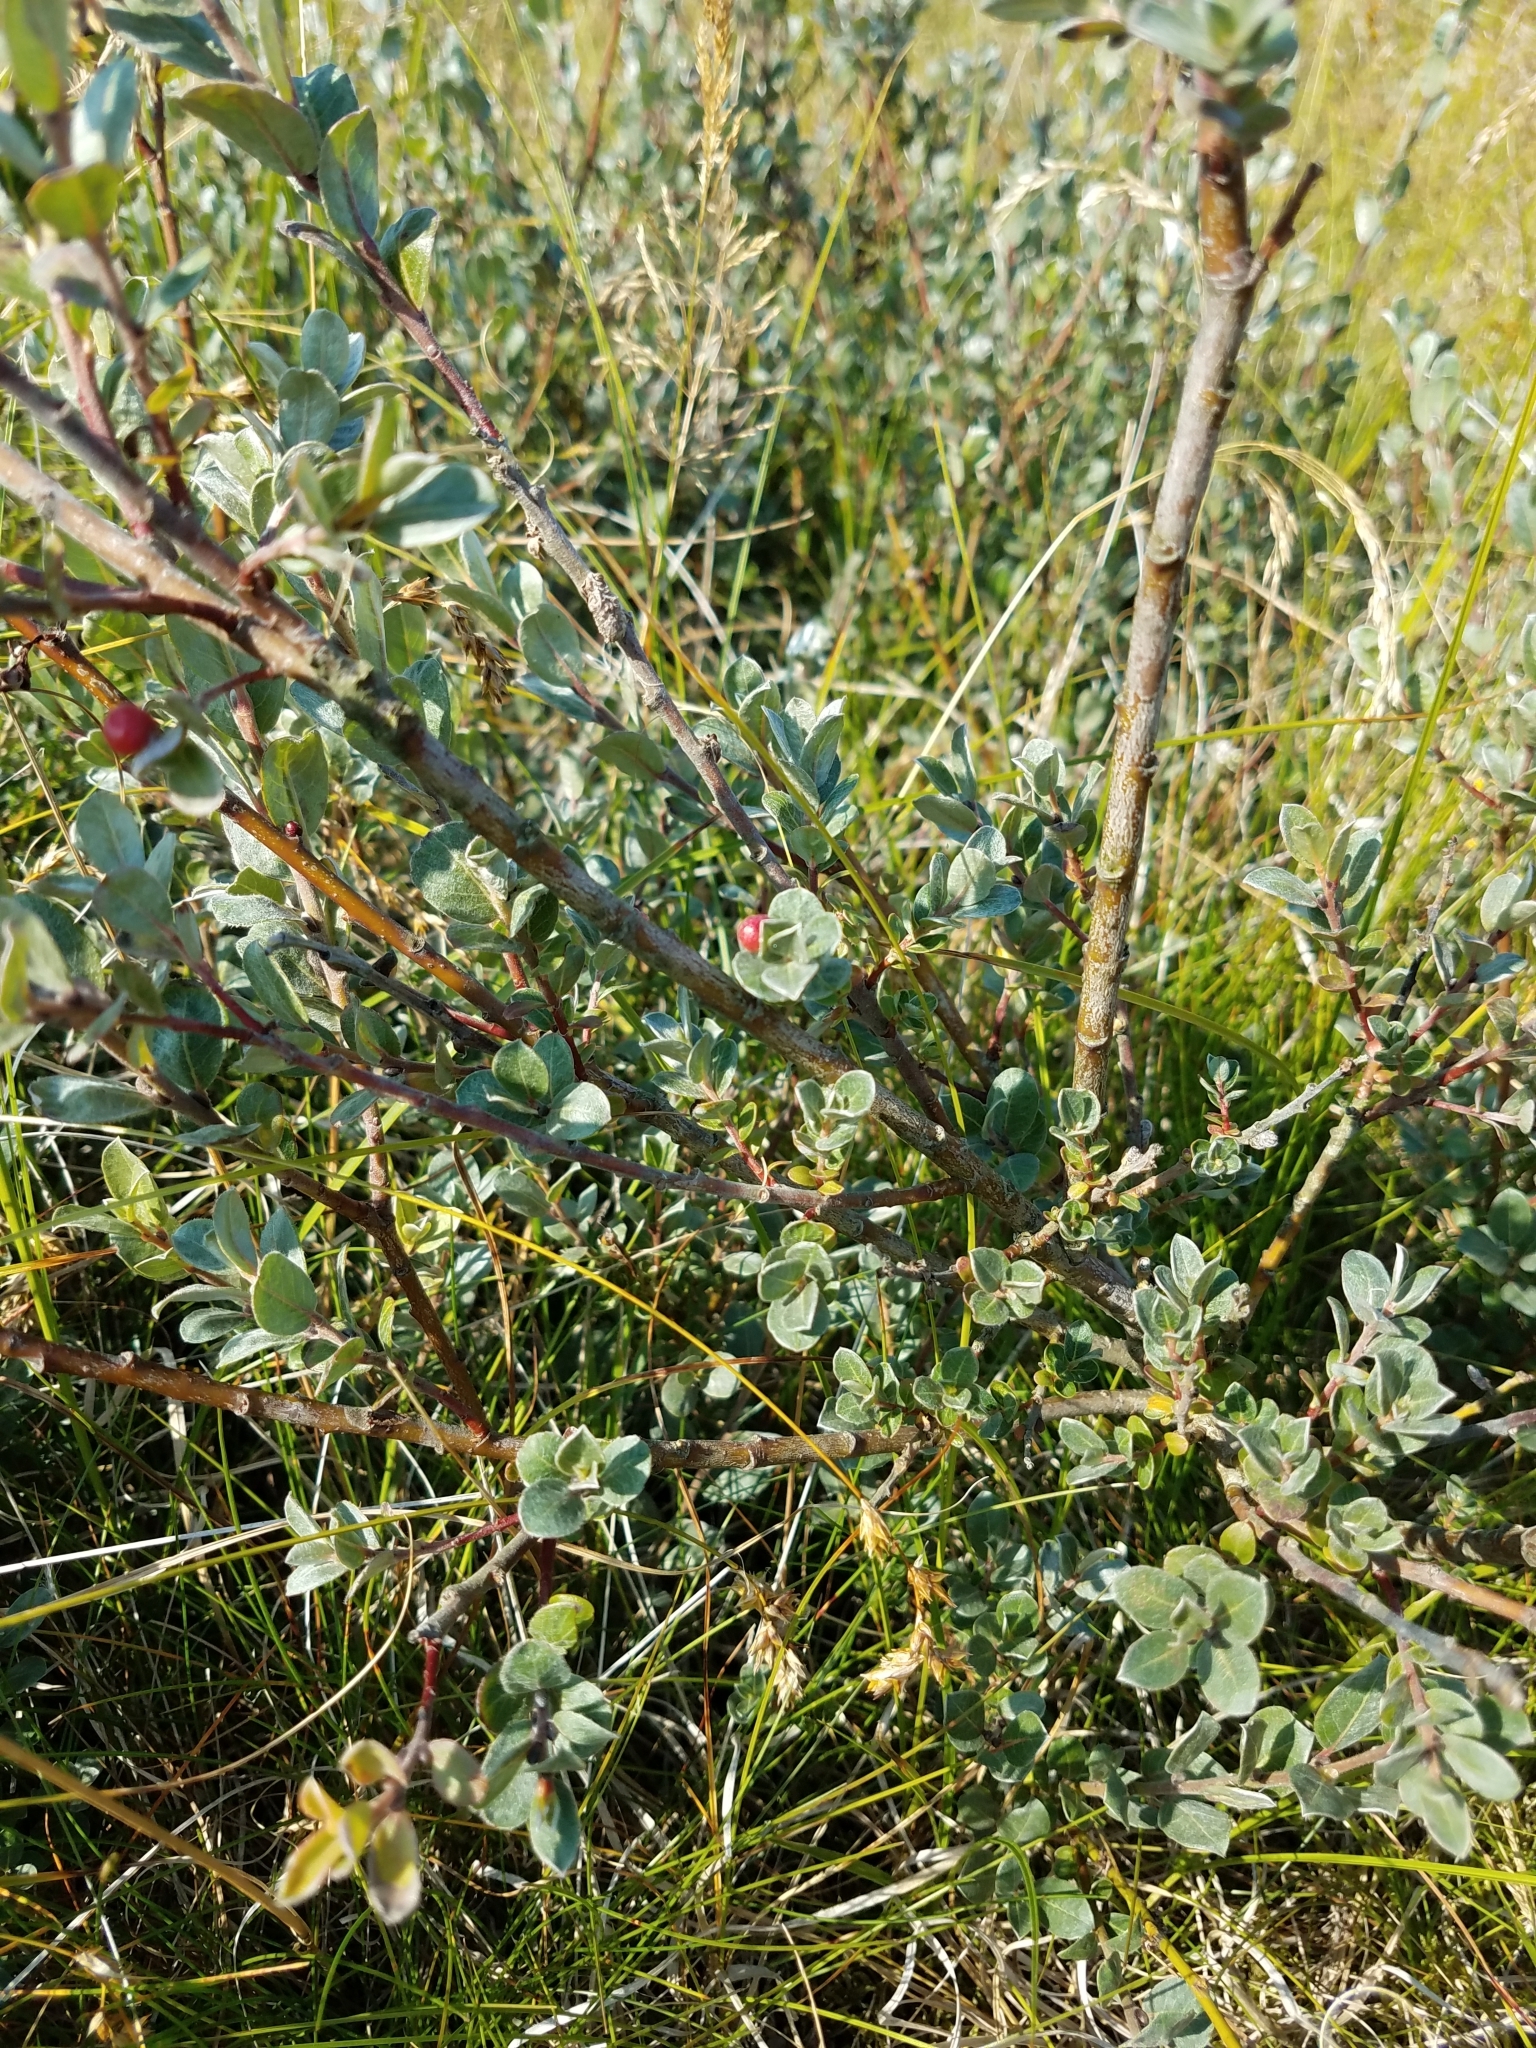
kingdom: Plantae
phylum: Tracheophyta
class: Magnoliopsida
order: Malpighiales
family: Salicaceae
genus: Salix
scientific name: Salix repens
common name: Creeping willow
